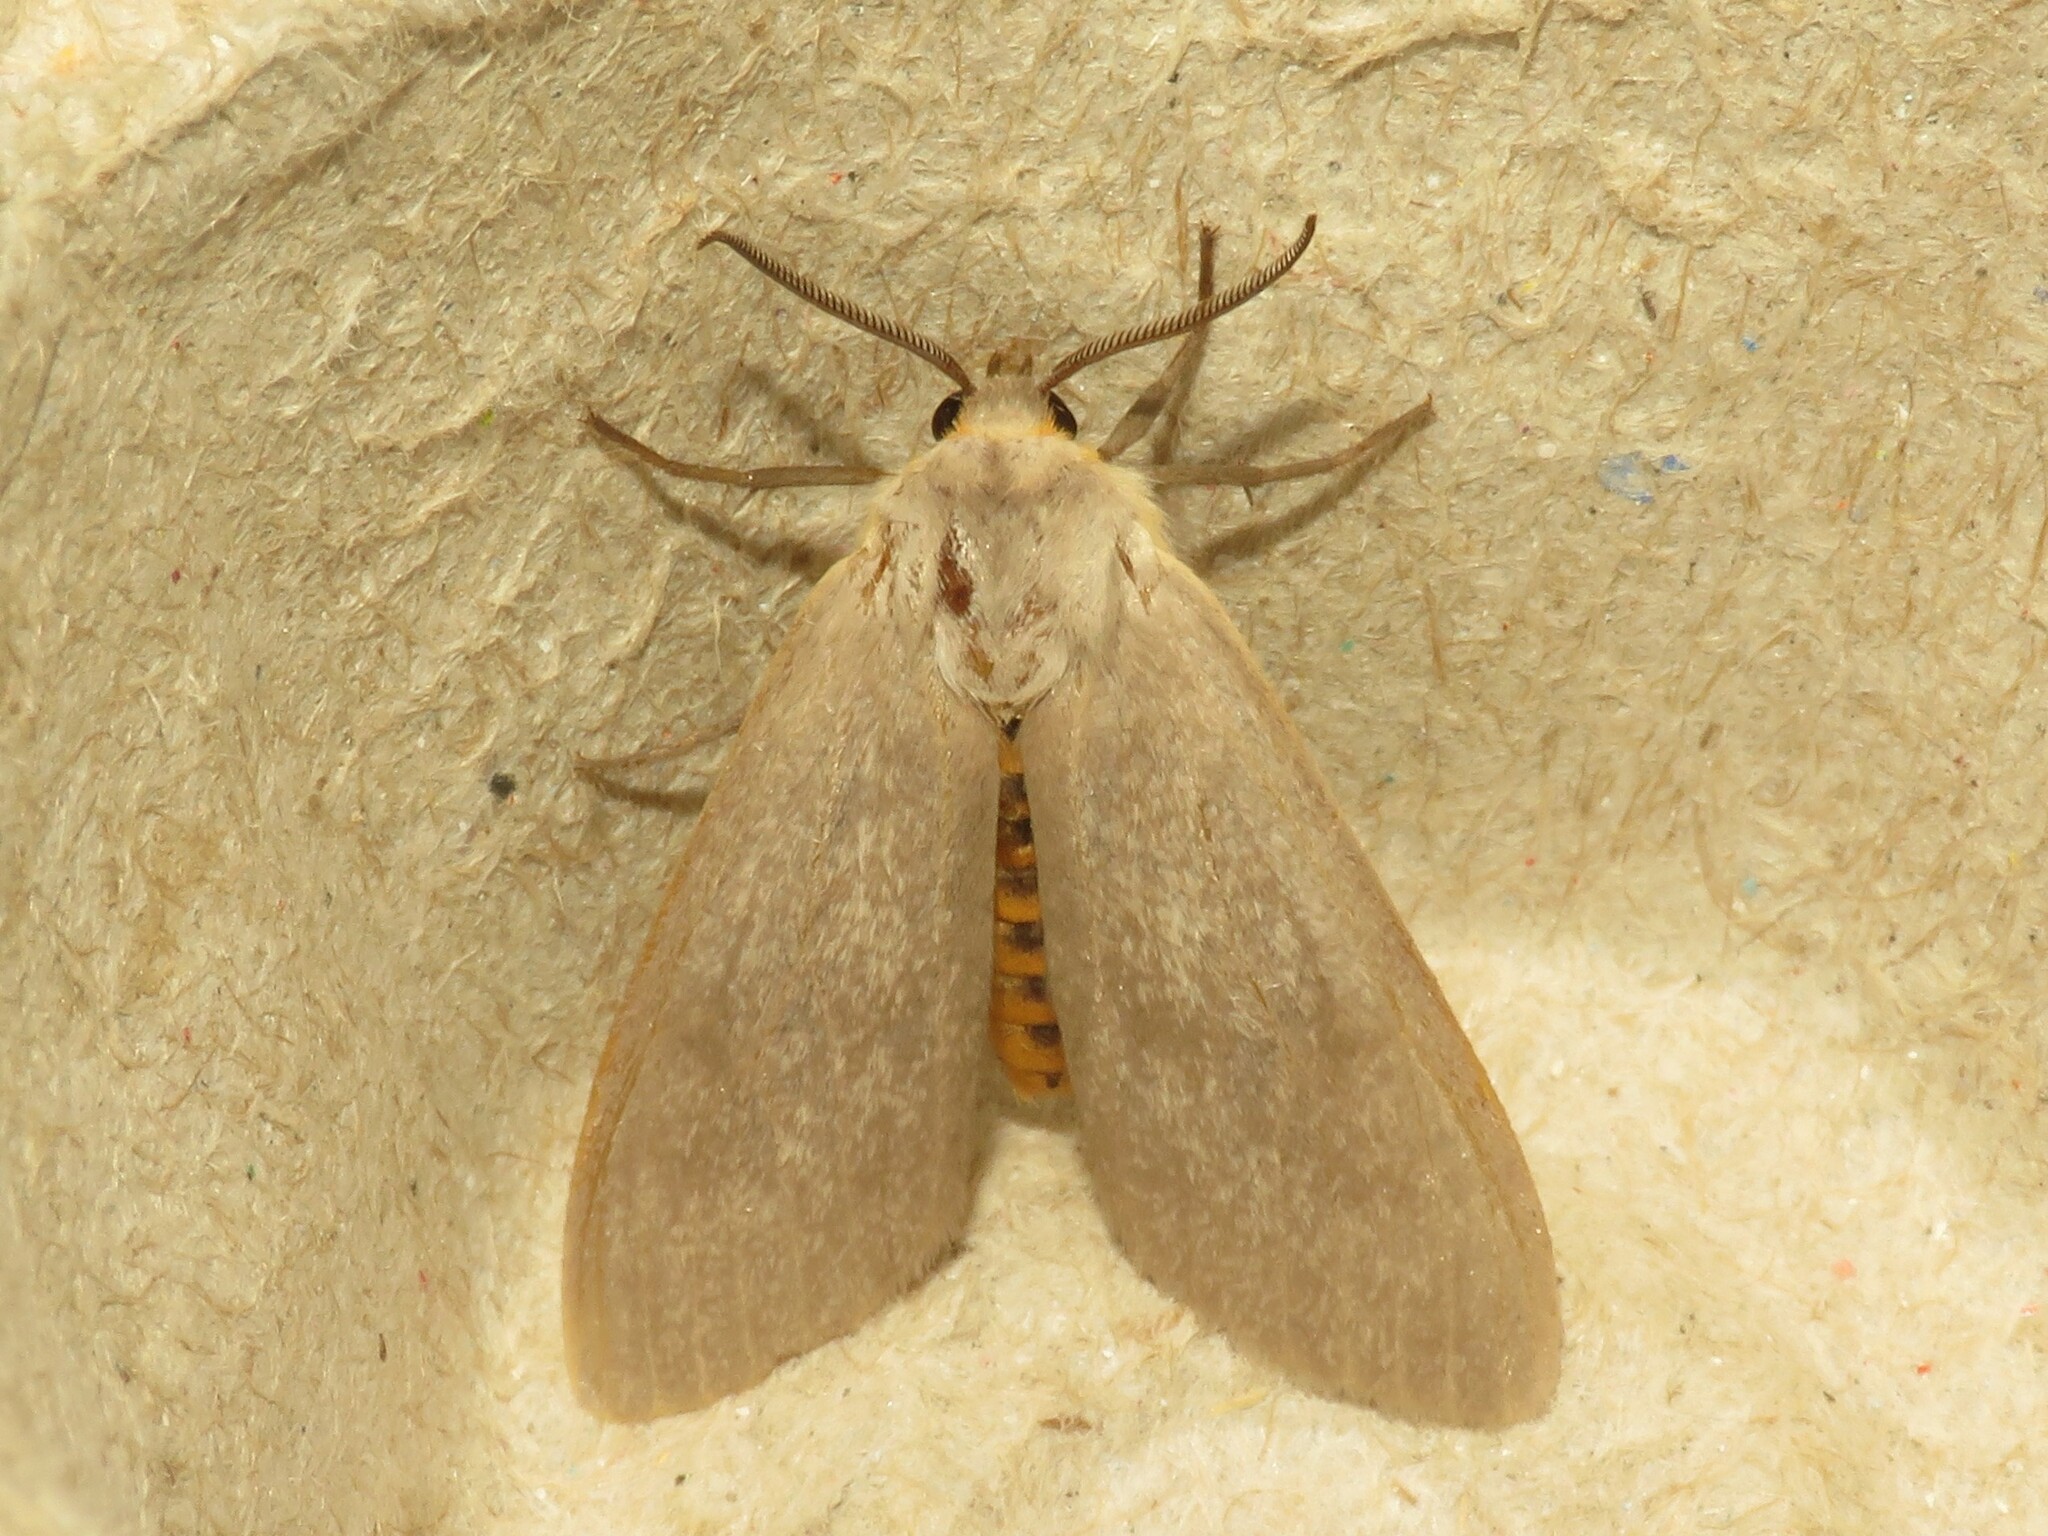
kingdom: Animalia
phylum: Arthropoda
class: Insecta
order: Lepidoptera
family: Erebidae
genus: Euchaetes
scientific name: Euchaetes egle
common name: Milkweed tussock moth
